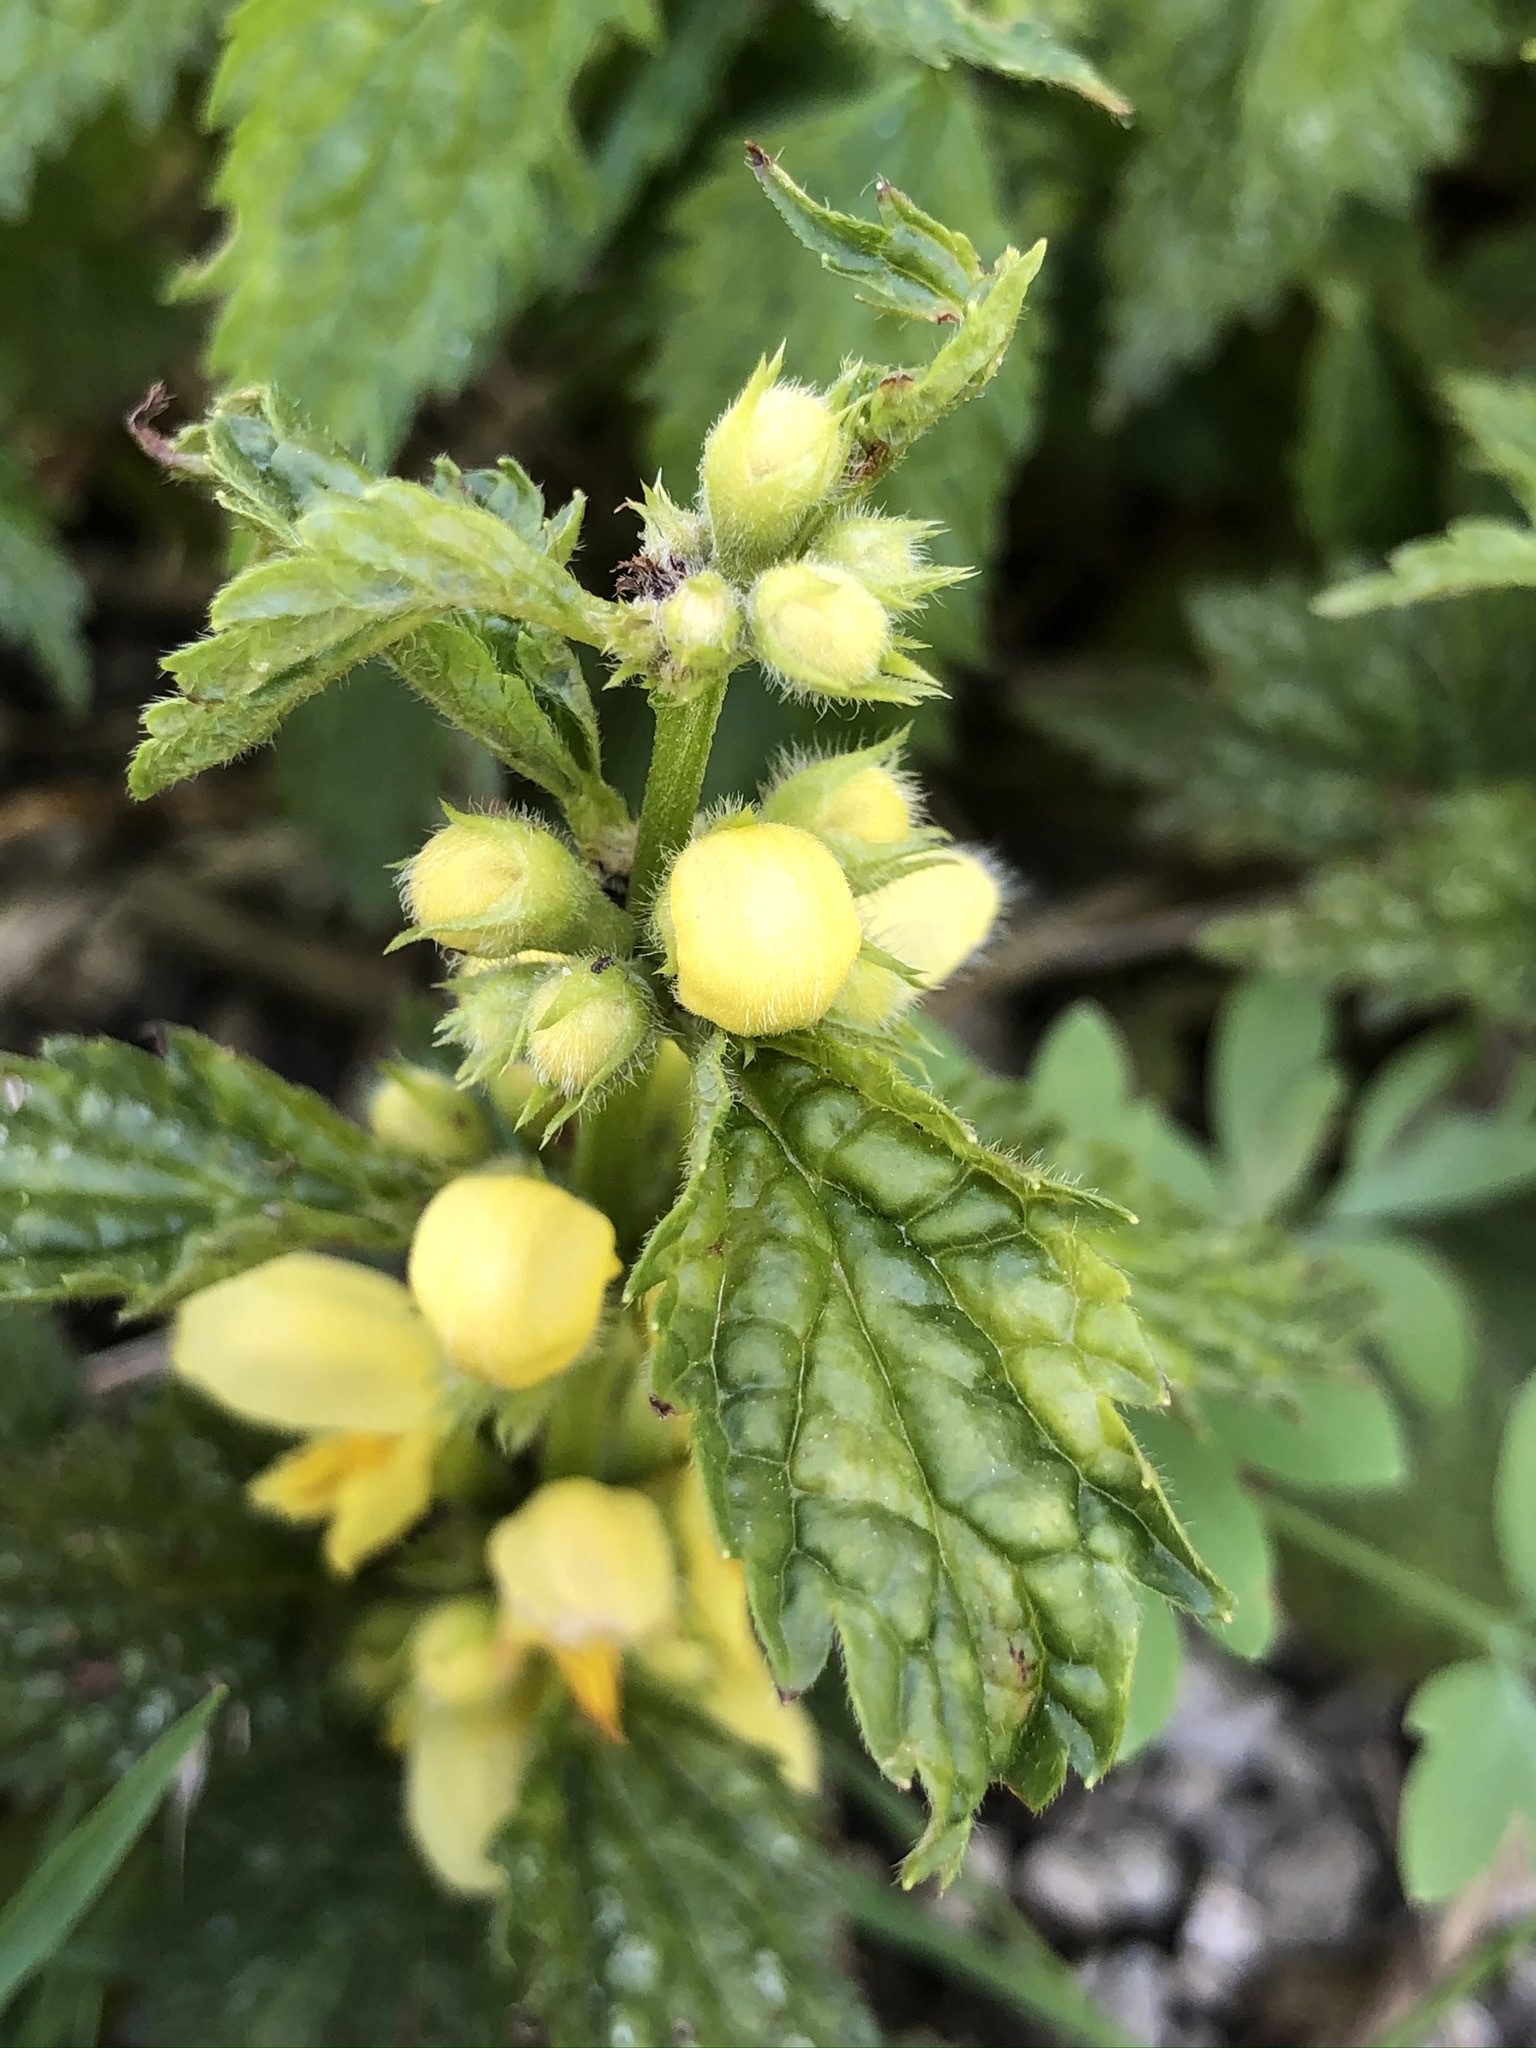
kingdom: Plantae
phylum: Tracheophyta
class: Magnoliopsida
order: Lamiales
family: Lamiaceae
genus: Lamium
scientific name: Lamium galeobdolon
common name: Yellow archangel
